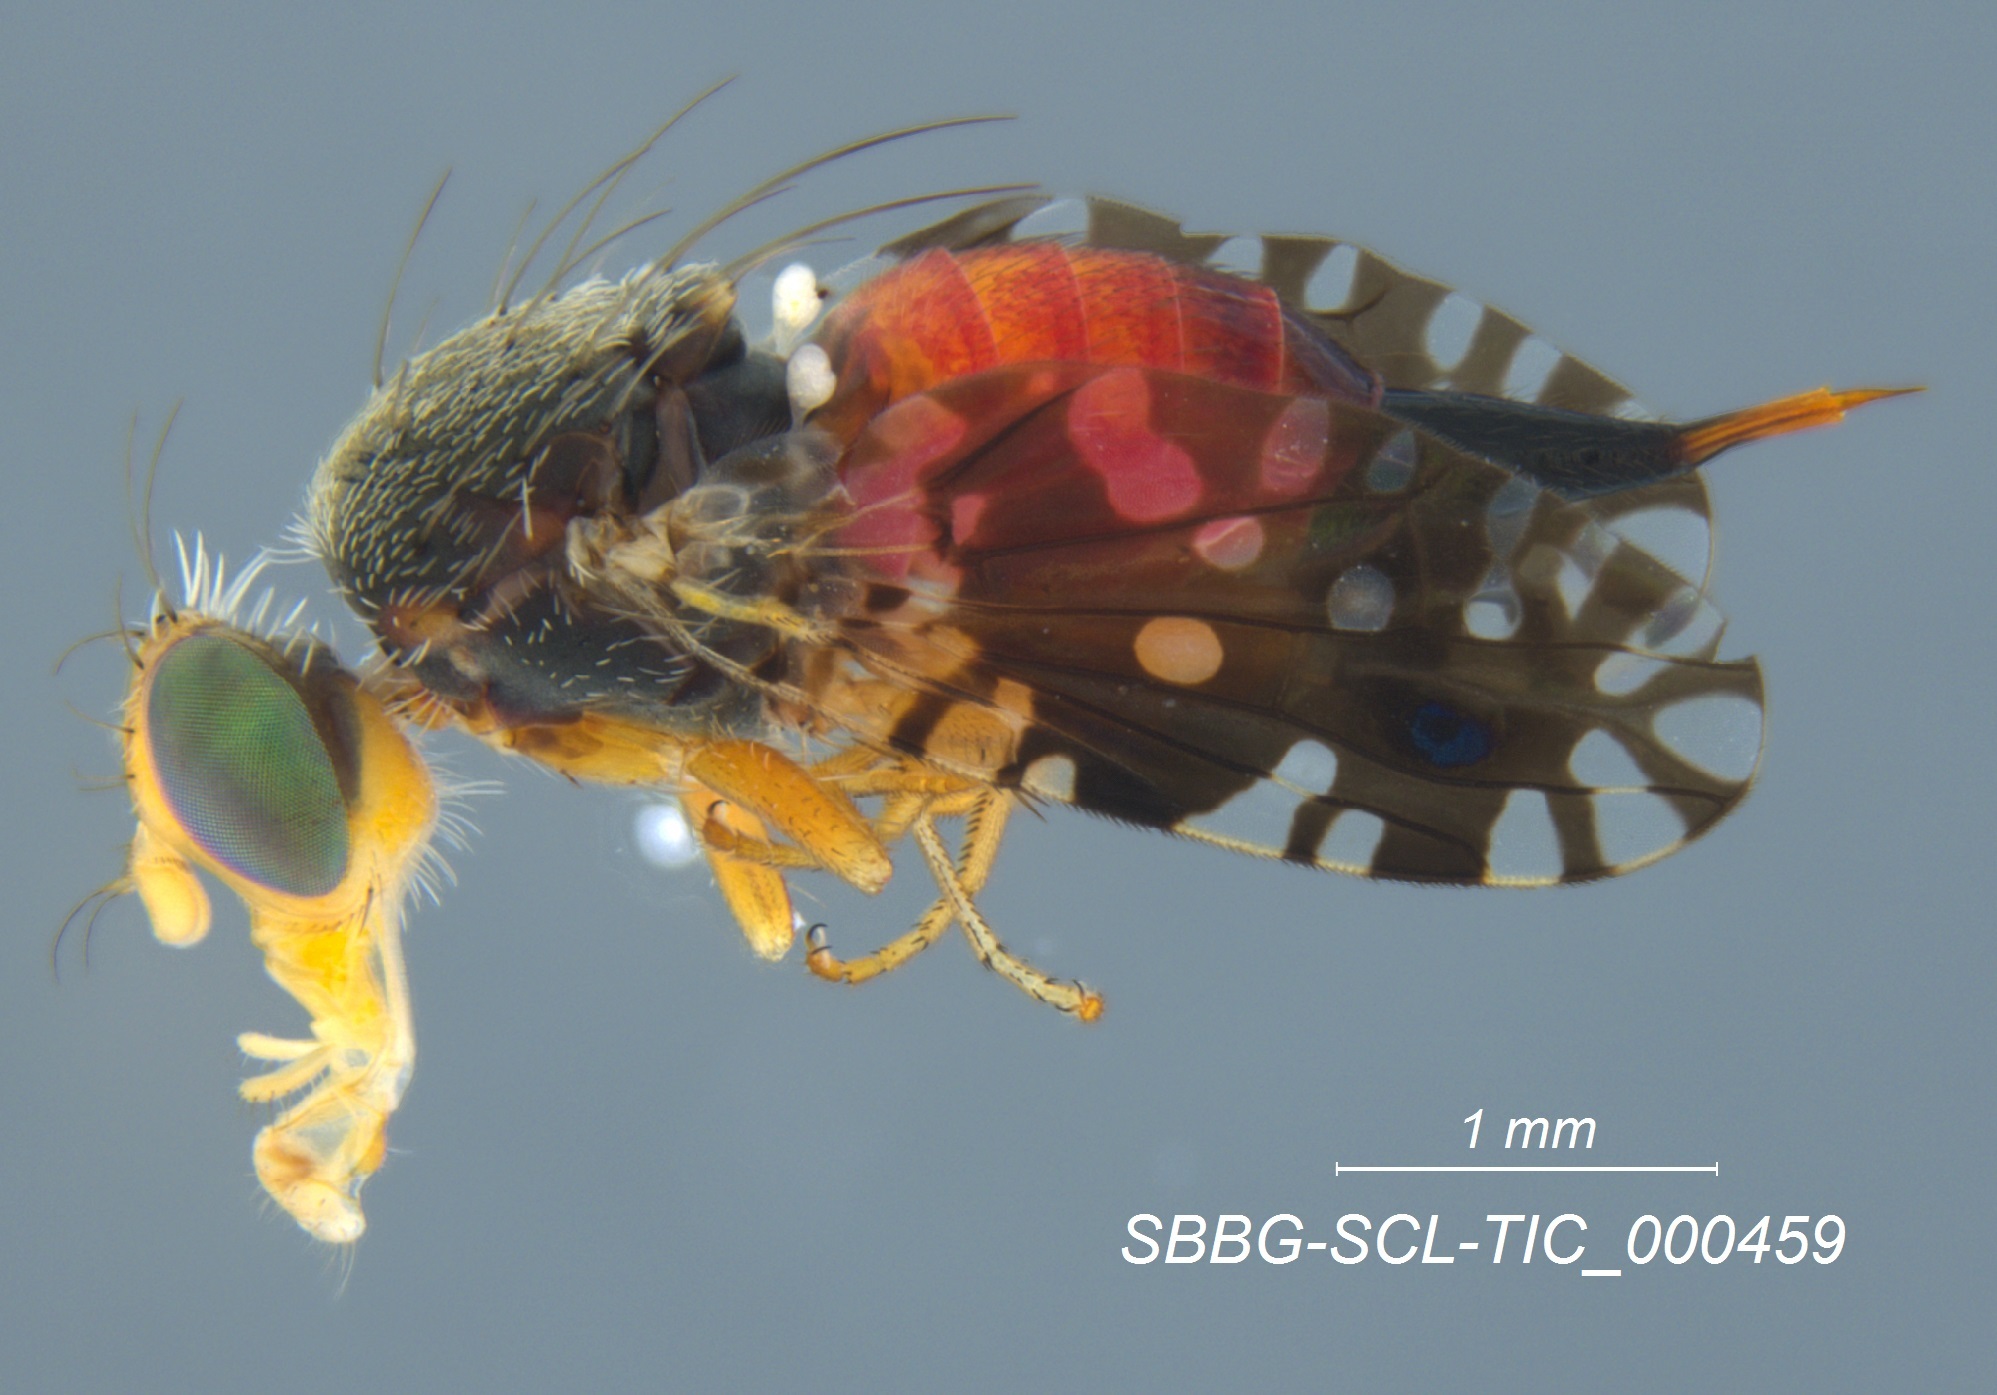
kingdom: Animalia
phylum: Arthropoda
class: Insecta
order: Diptera
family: Tephritidae
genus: Euaresta
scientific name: Euaresta stelligera
